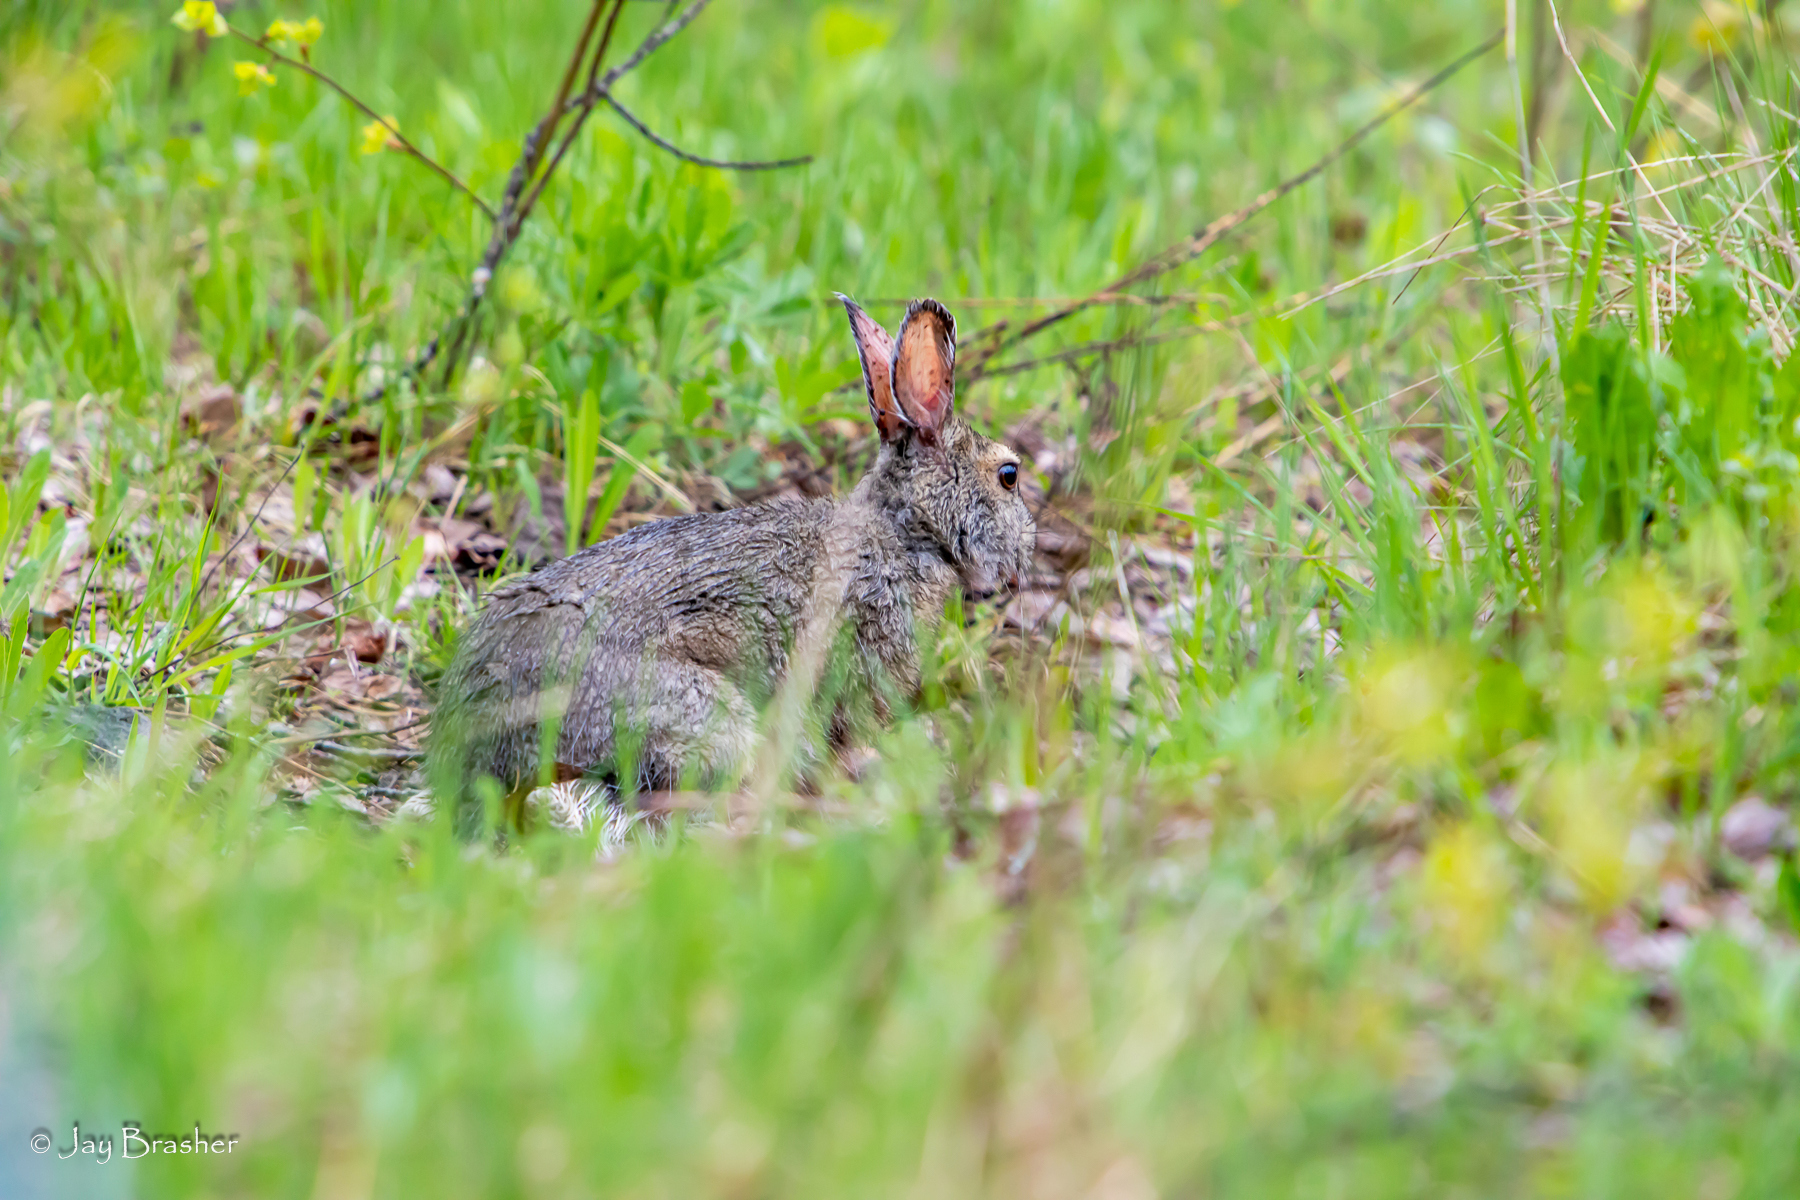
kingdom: Animalia
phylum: Chordata
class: Mammalia
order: Lagomorpha
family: Leporidae
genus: Lepus
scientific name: Lepus americanus
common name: Snowshoe hare
